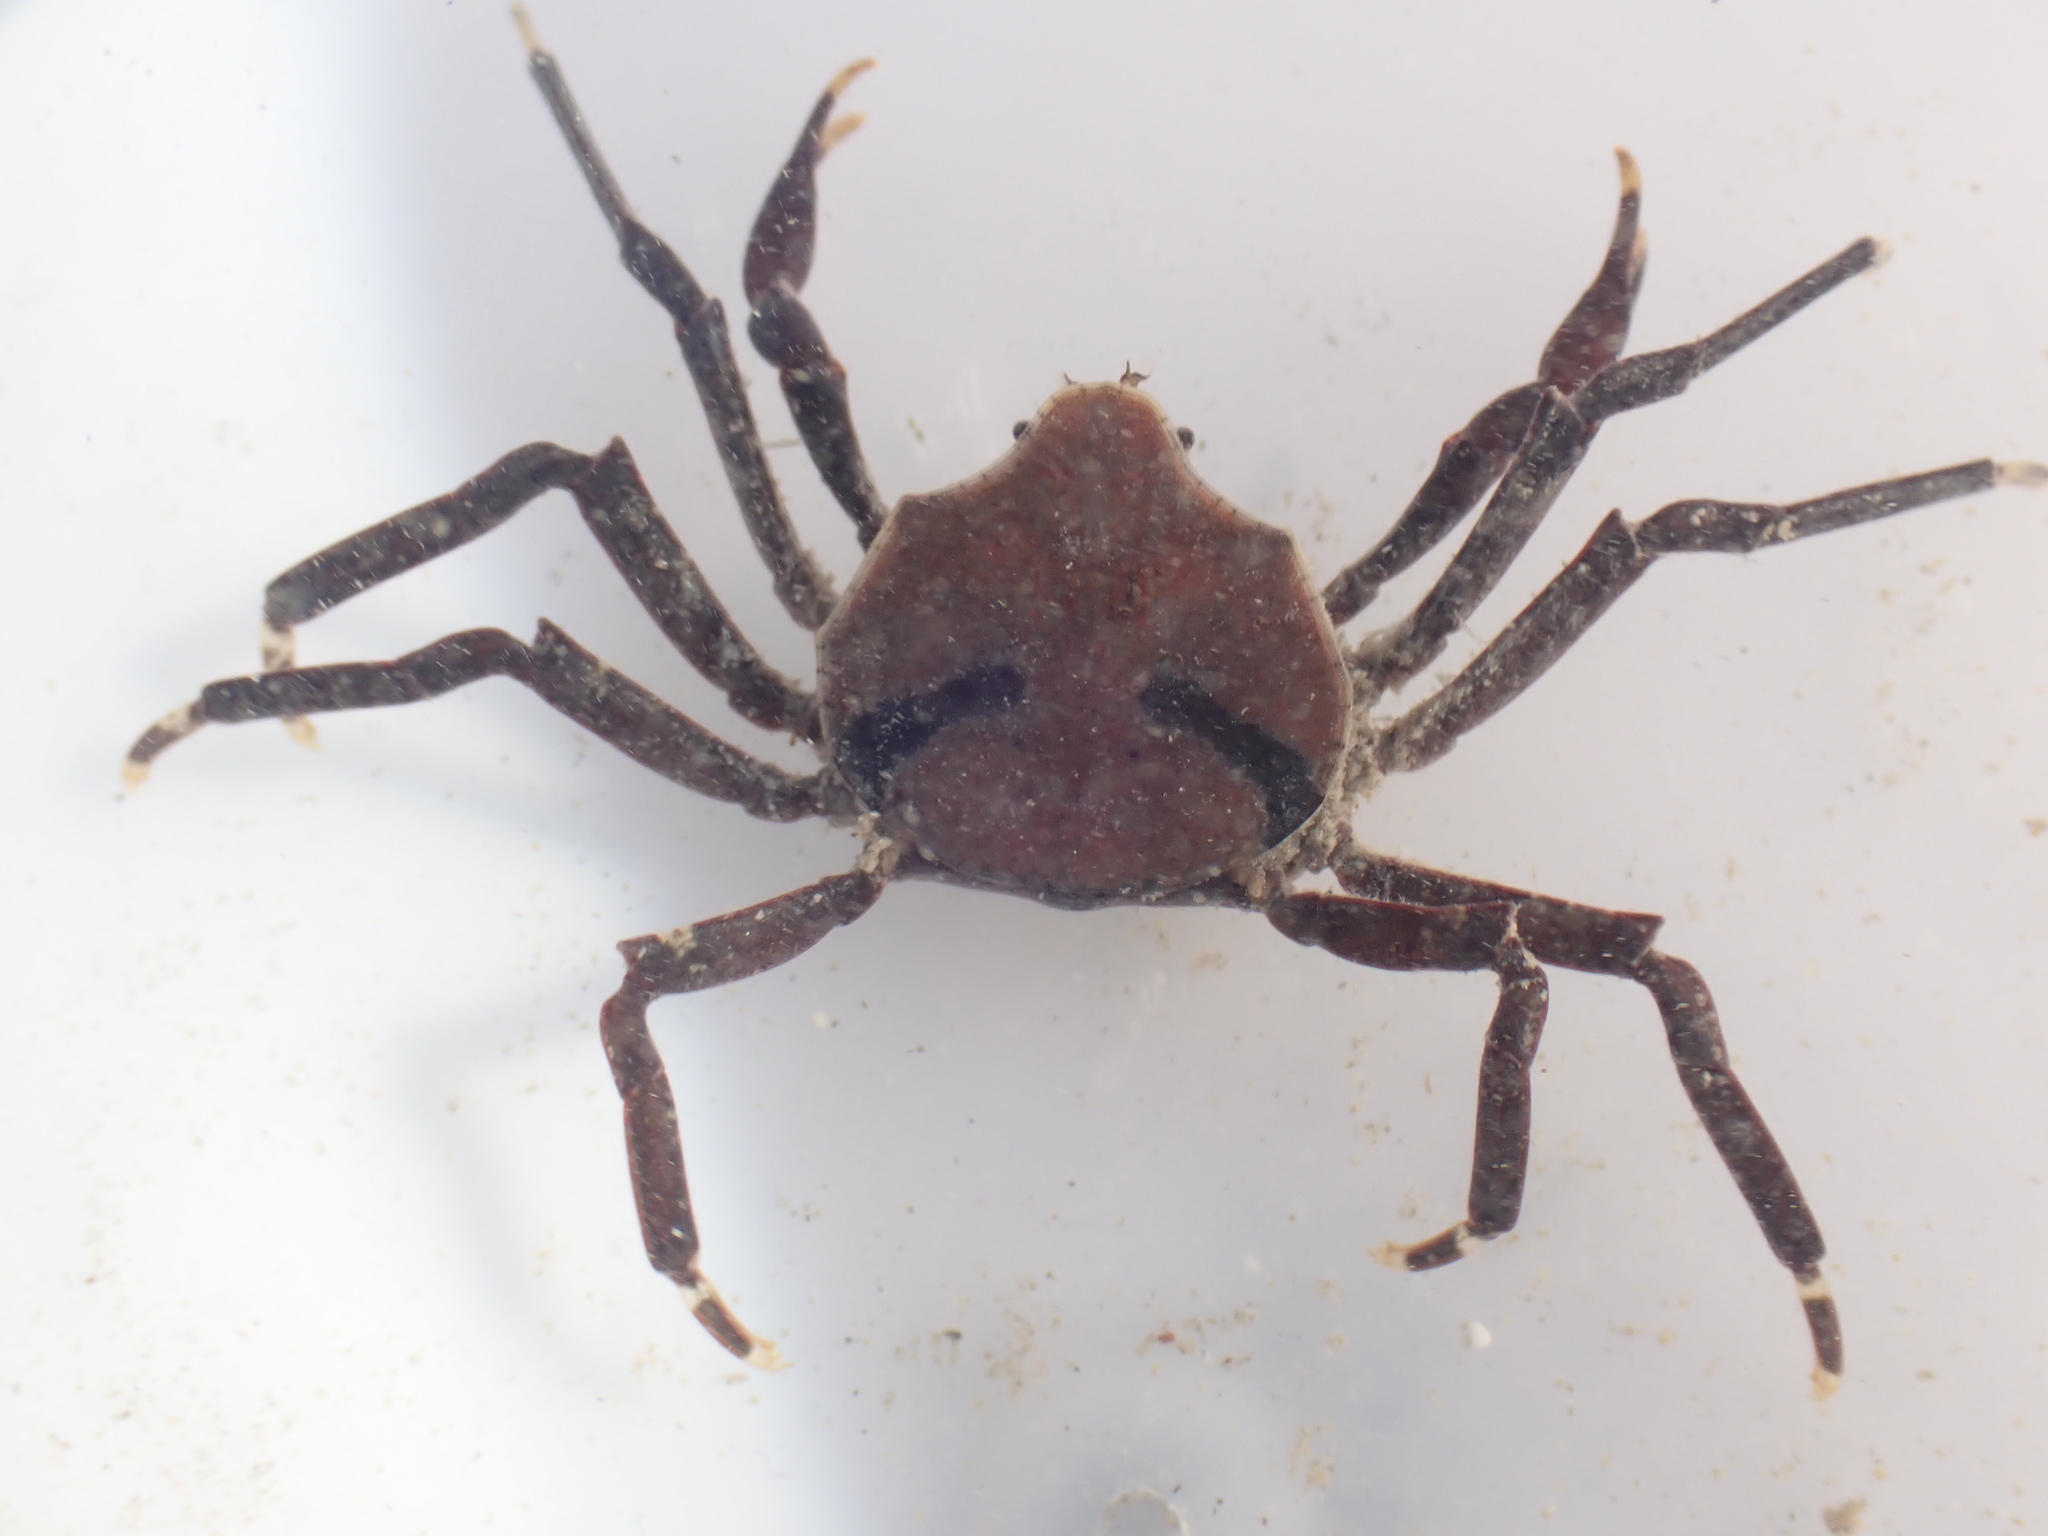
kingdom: Animalia
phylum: Arthropoda
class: Malacostraca
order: Decapoda
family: Hymenosomatidae
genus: Elamena
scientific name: Elamena producta
